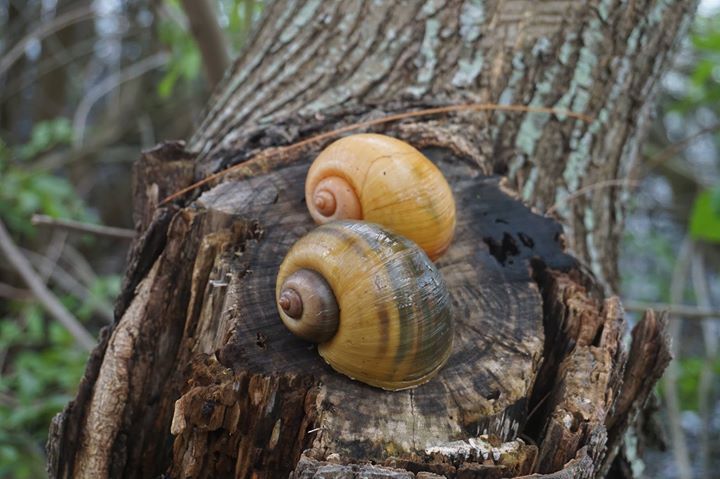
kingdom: Animalia
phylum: Mollusca
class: Gastropoda
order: Architaenioglossa
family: Ampullariidae
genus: Pomacea
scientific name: Pomacea canaliculata
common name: Channeled applesnail
